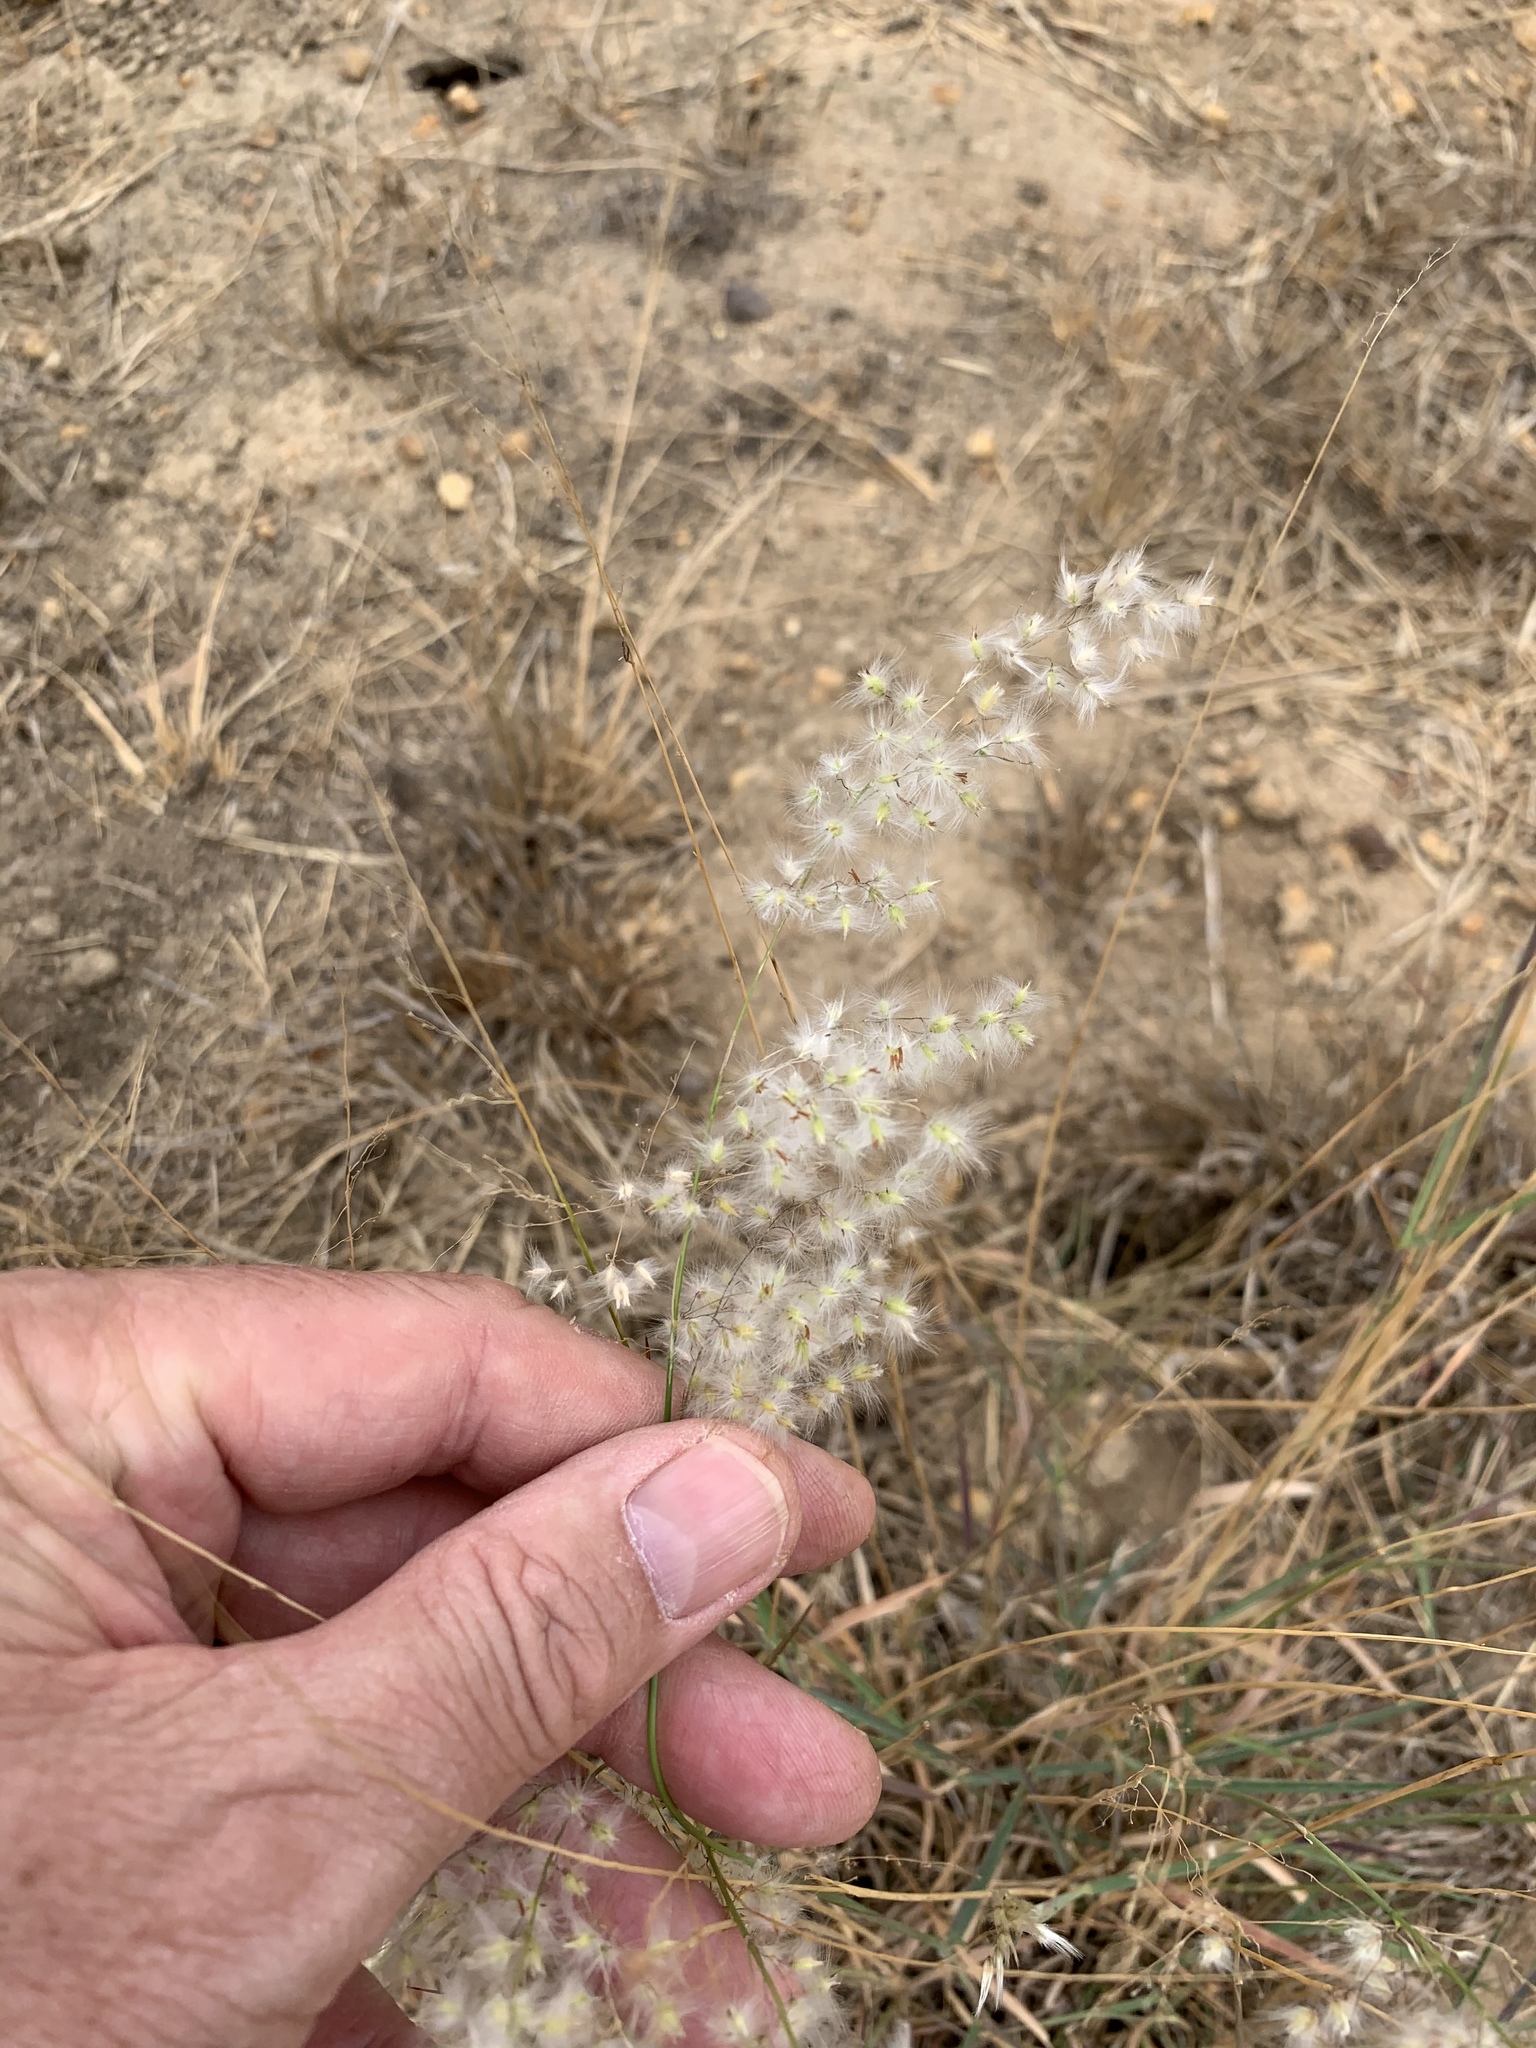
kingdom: Plantae
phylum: Tracheophyta
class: Liliopsida
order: Poales
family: Poaceae
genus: Melinis
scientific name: Melinis repens
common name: Rose natal grass
